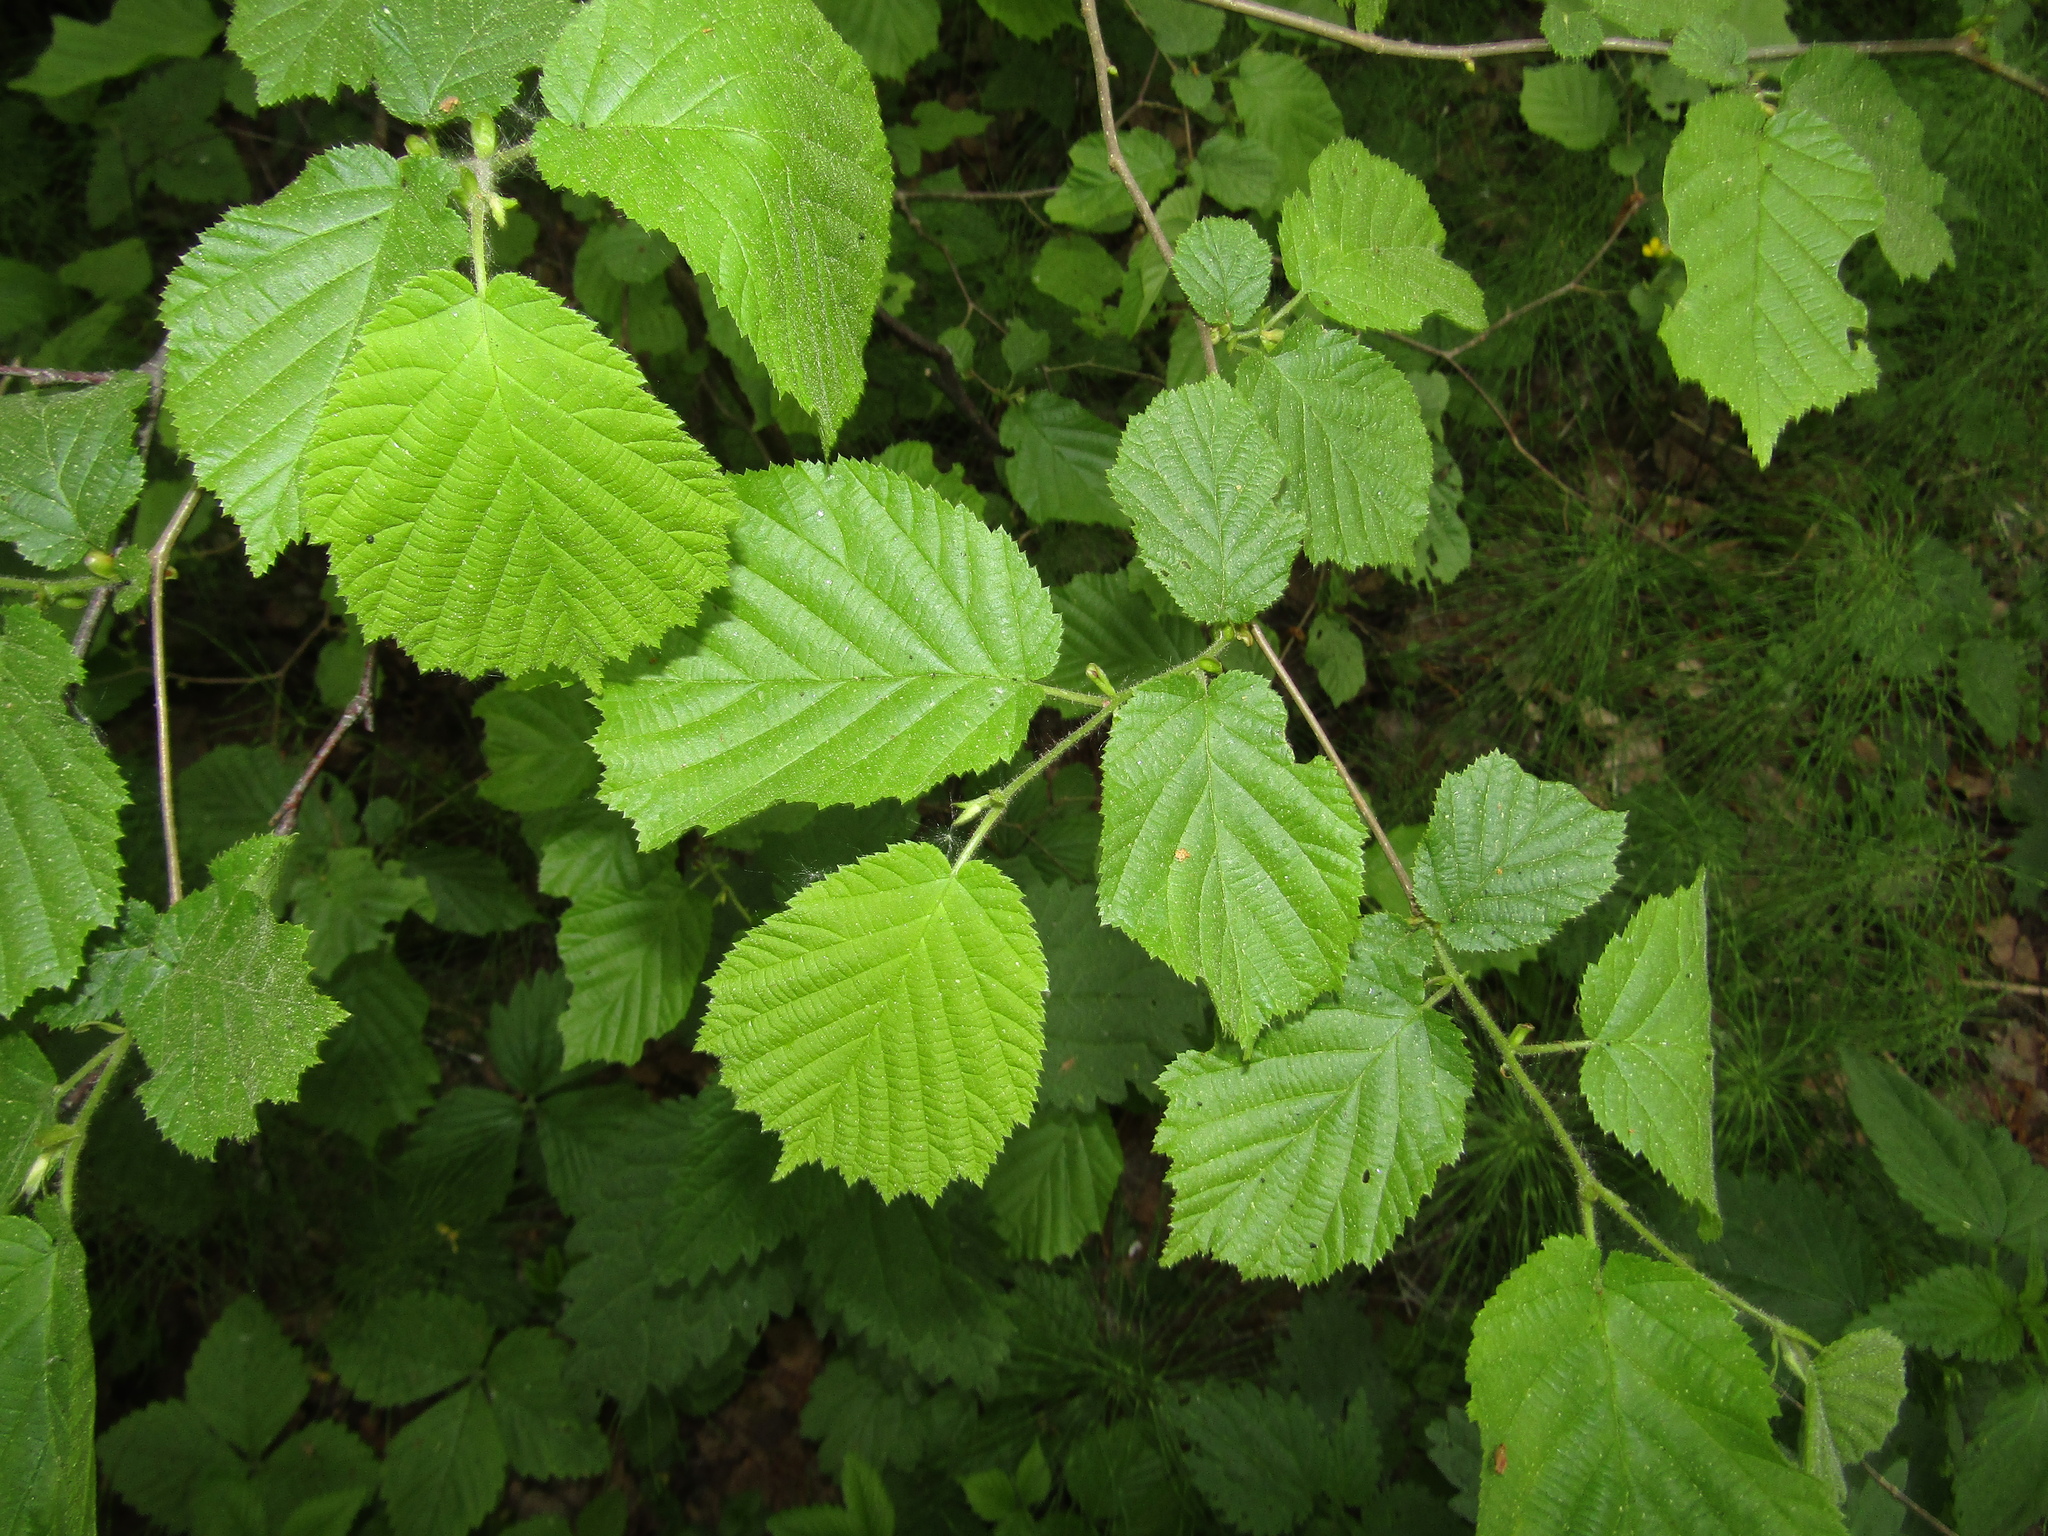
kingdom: Plantae
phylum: Tracheophyta
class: Magnoliopsida
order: Fagales
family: Betulaceae
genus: Corylus
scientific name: Corylus avellana
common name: European hazel
